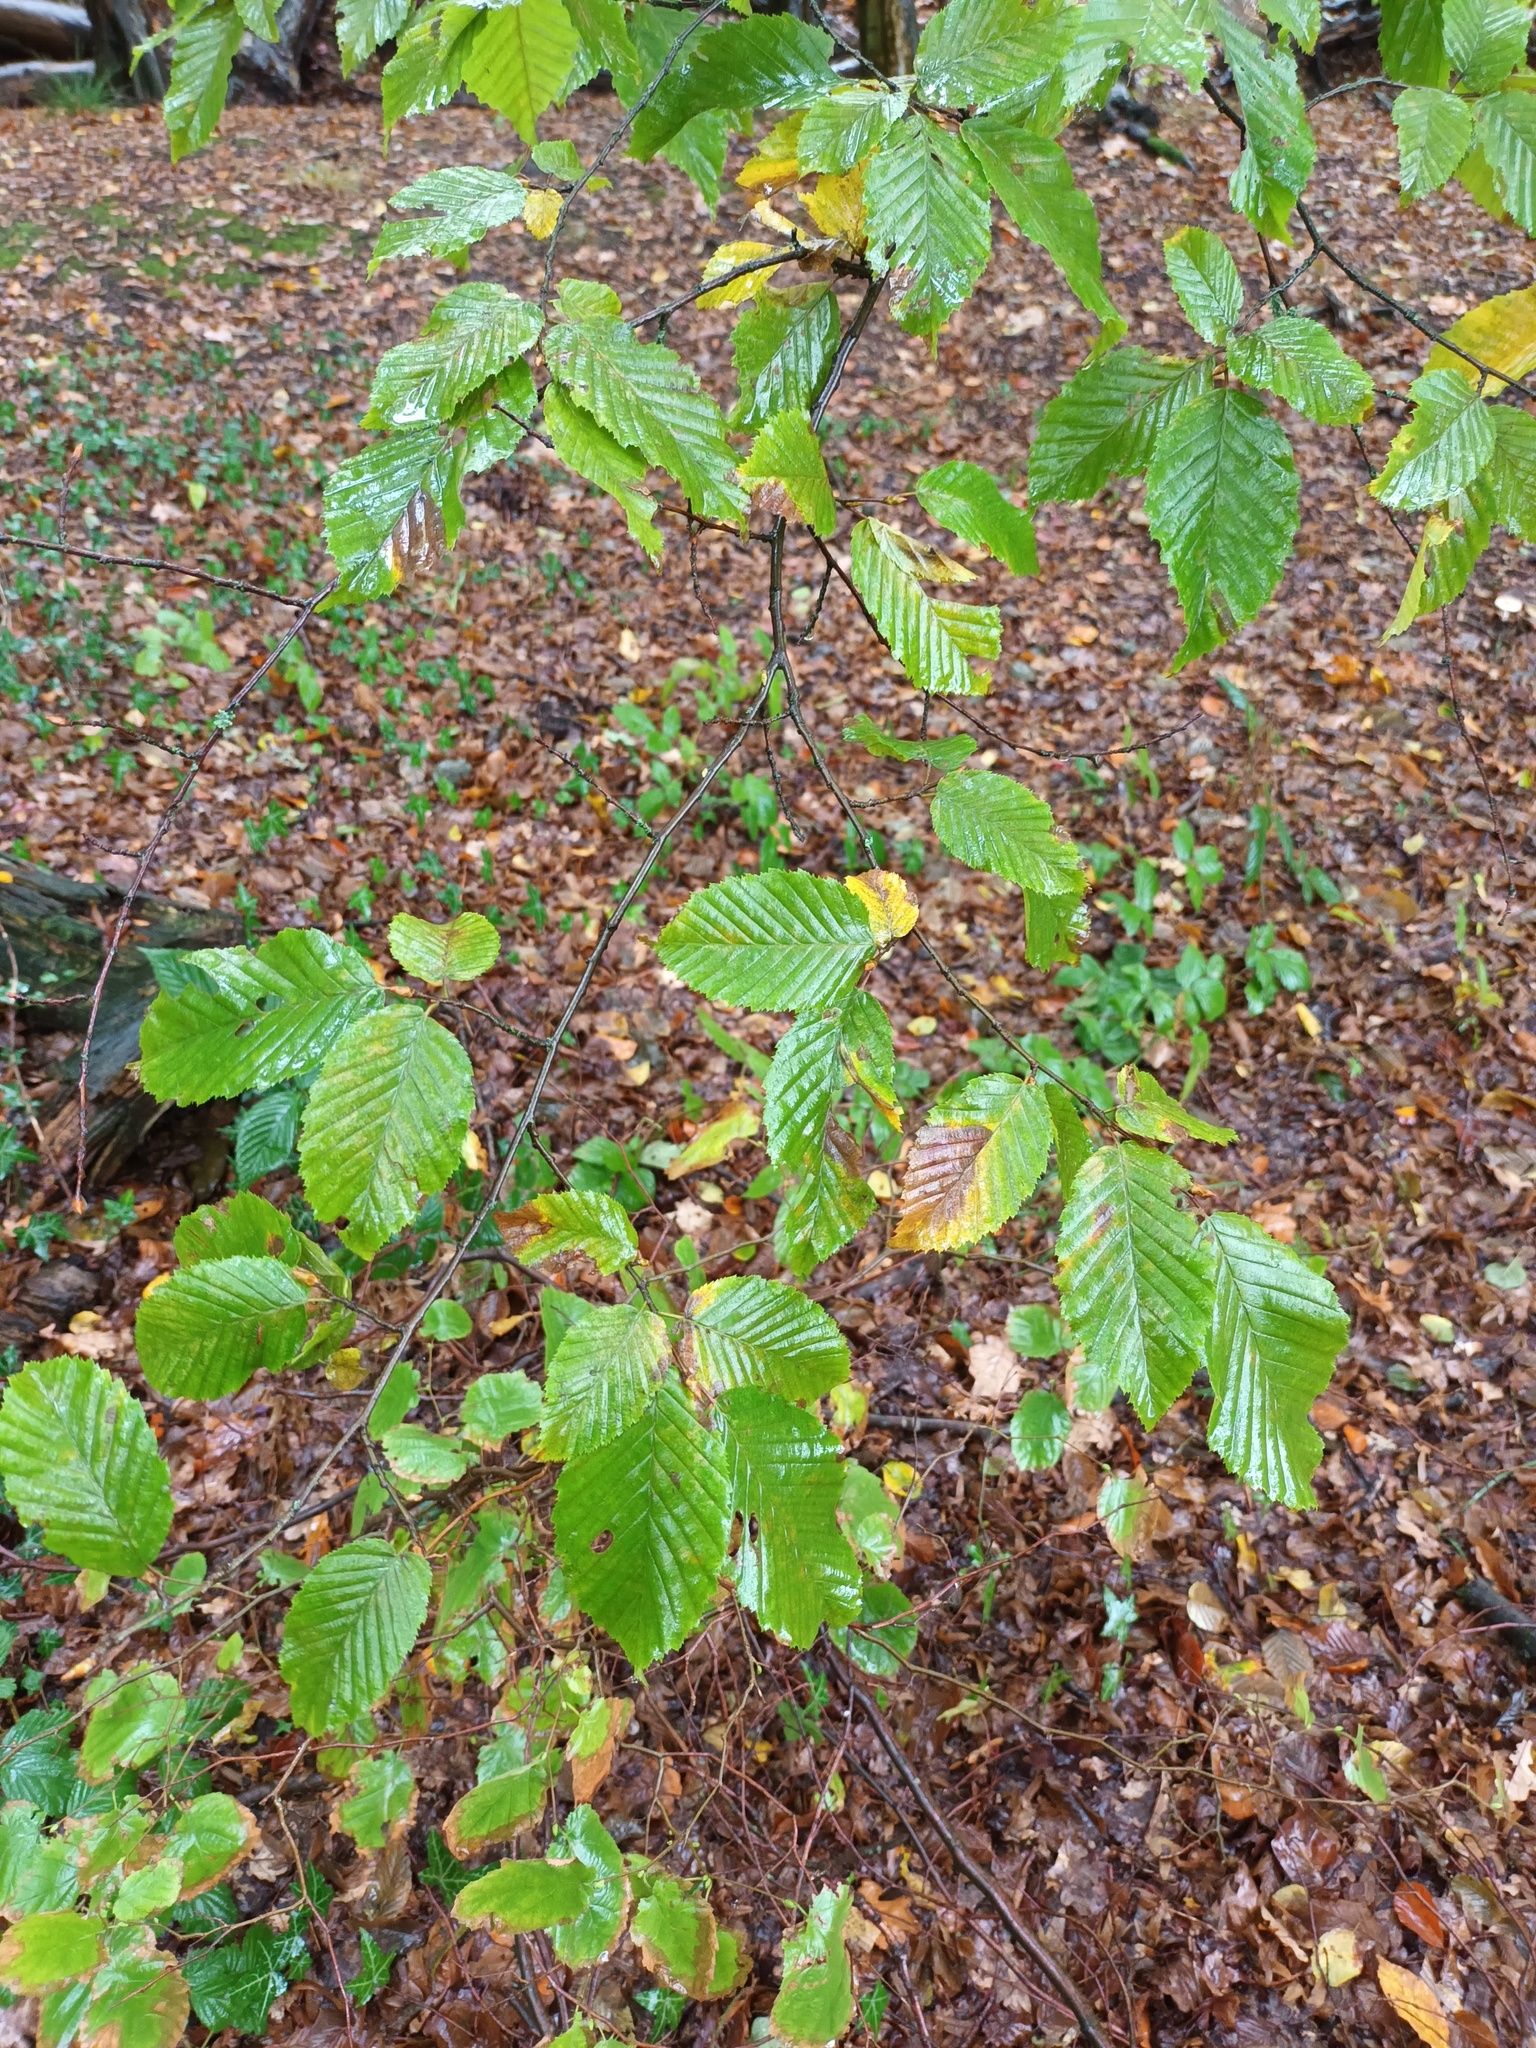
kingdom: Plantae
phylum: Tracheophyta
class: Magnoliopsida
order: Fagales
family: Betulaceae
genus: Carpinus
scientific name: Carpinus betulus
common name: Hornbeam
